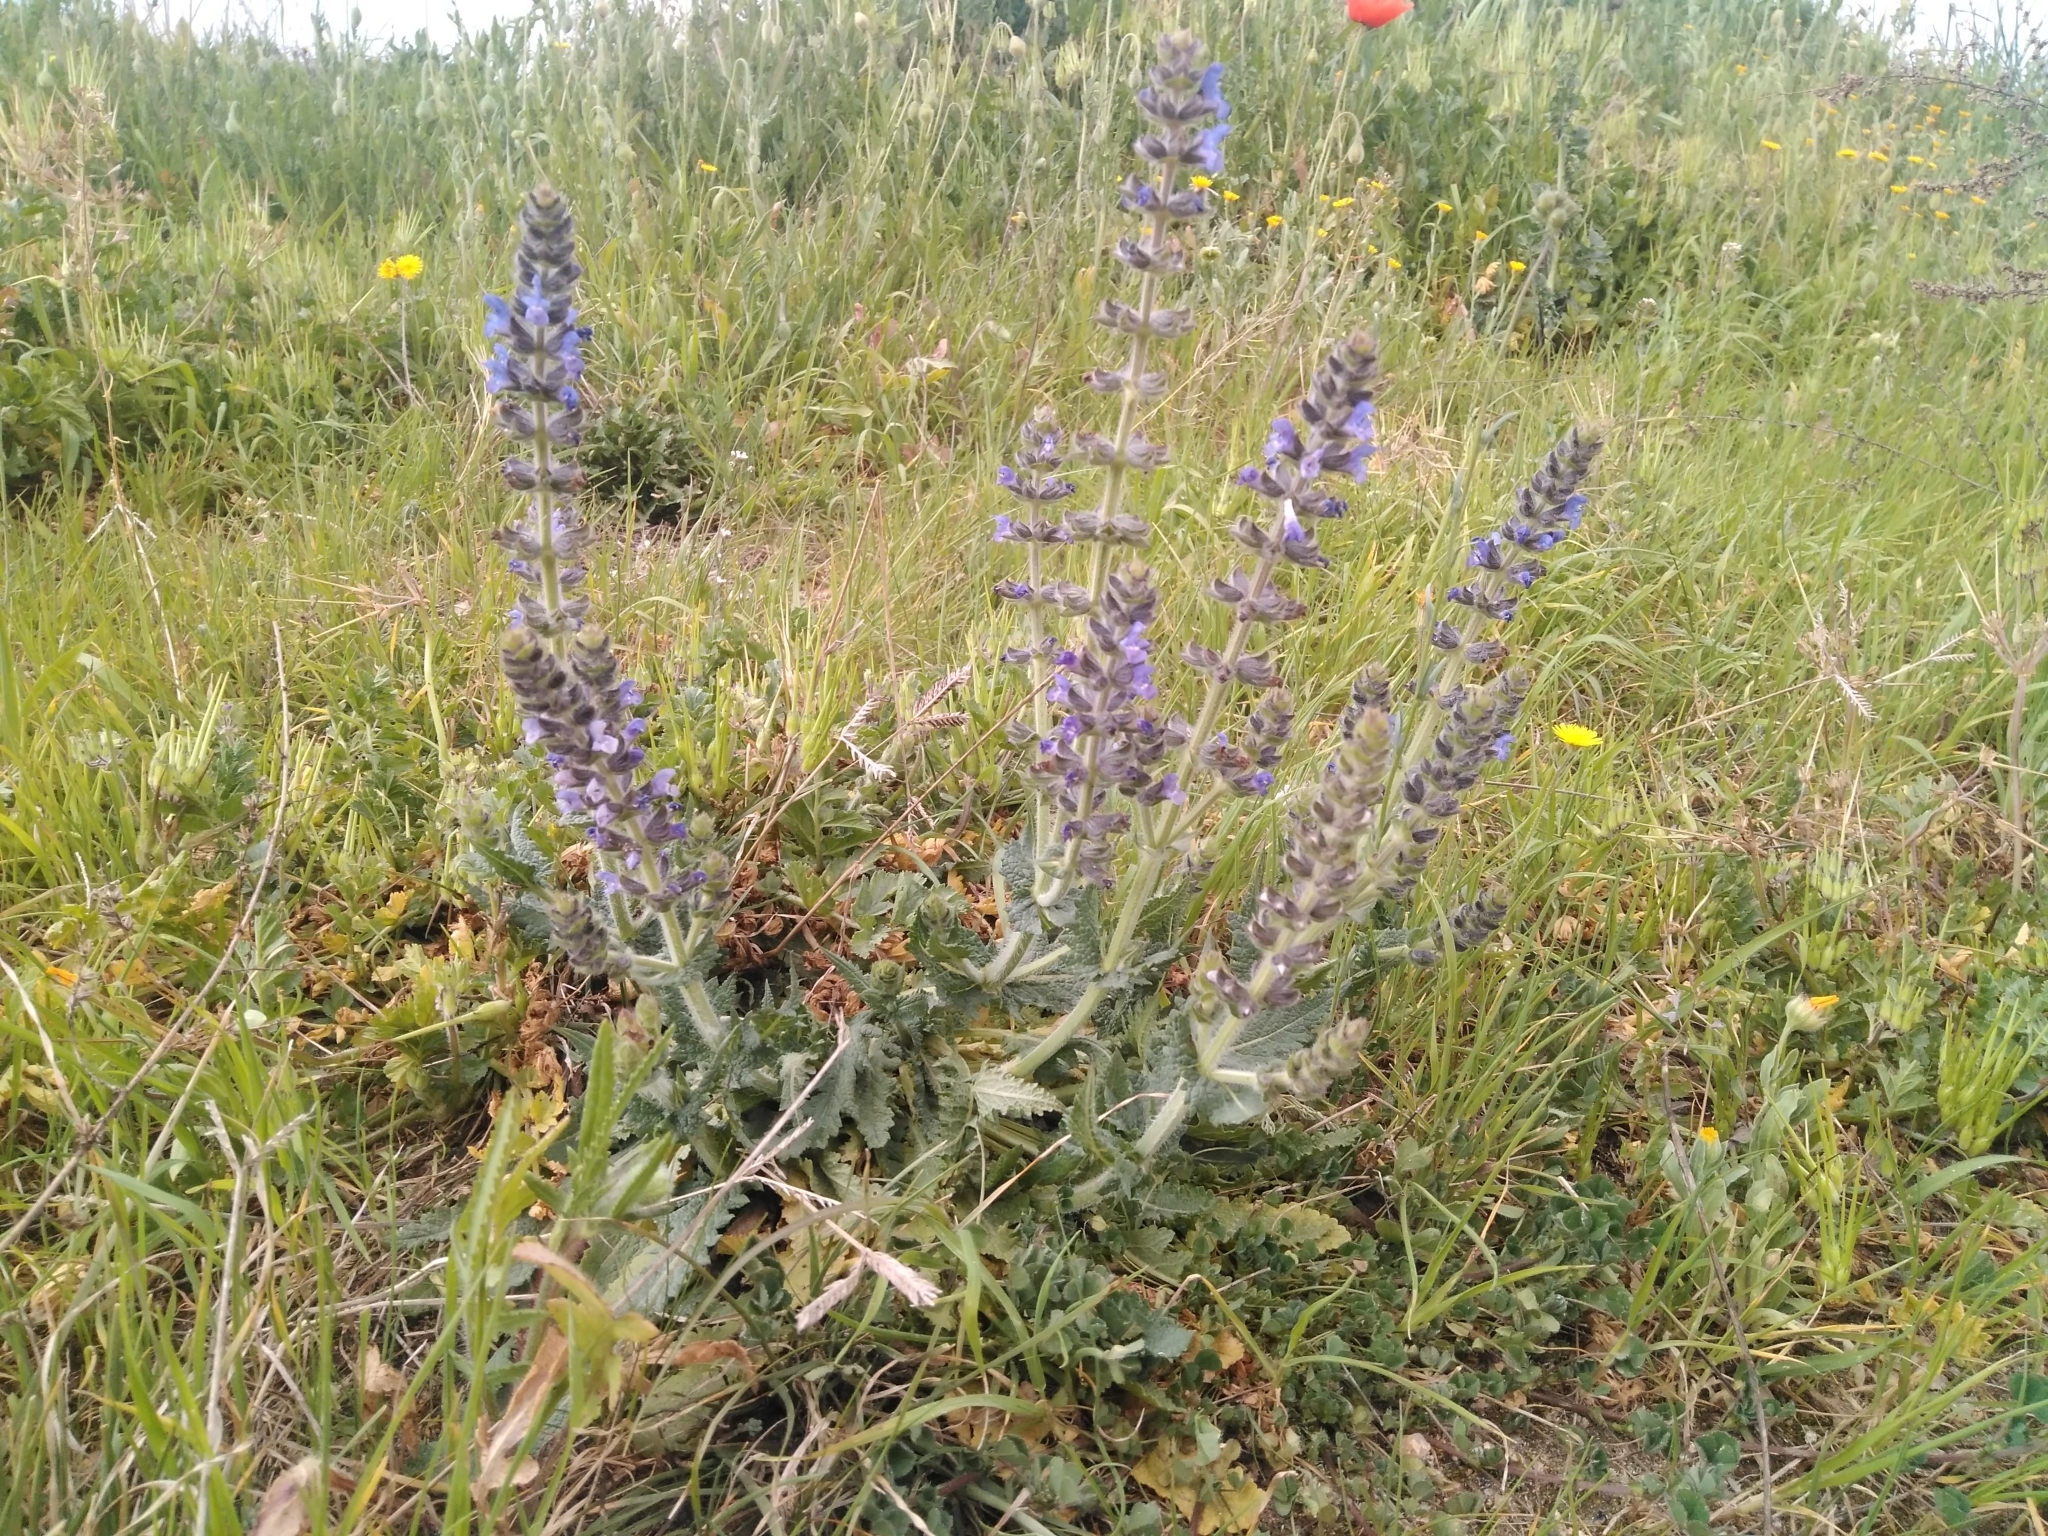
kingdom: Plantae
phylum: Tracheophyta
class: Magnoliopsida
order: Lamiales
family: Lamiaceae
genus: Salvia
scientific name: Salvia verbenaca
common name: Wild clary
